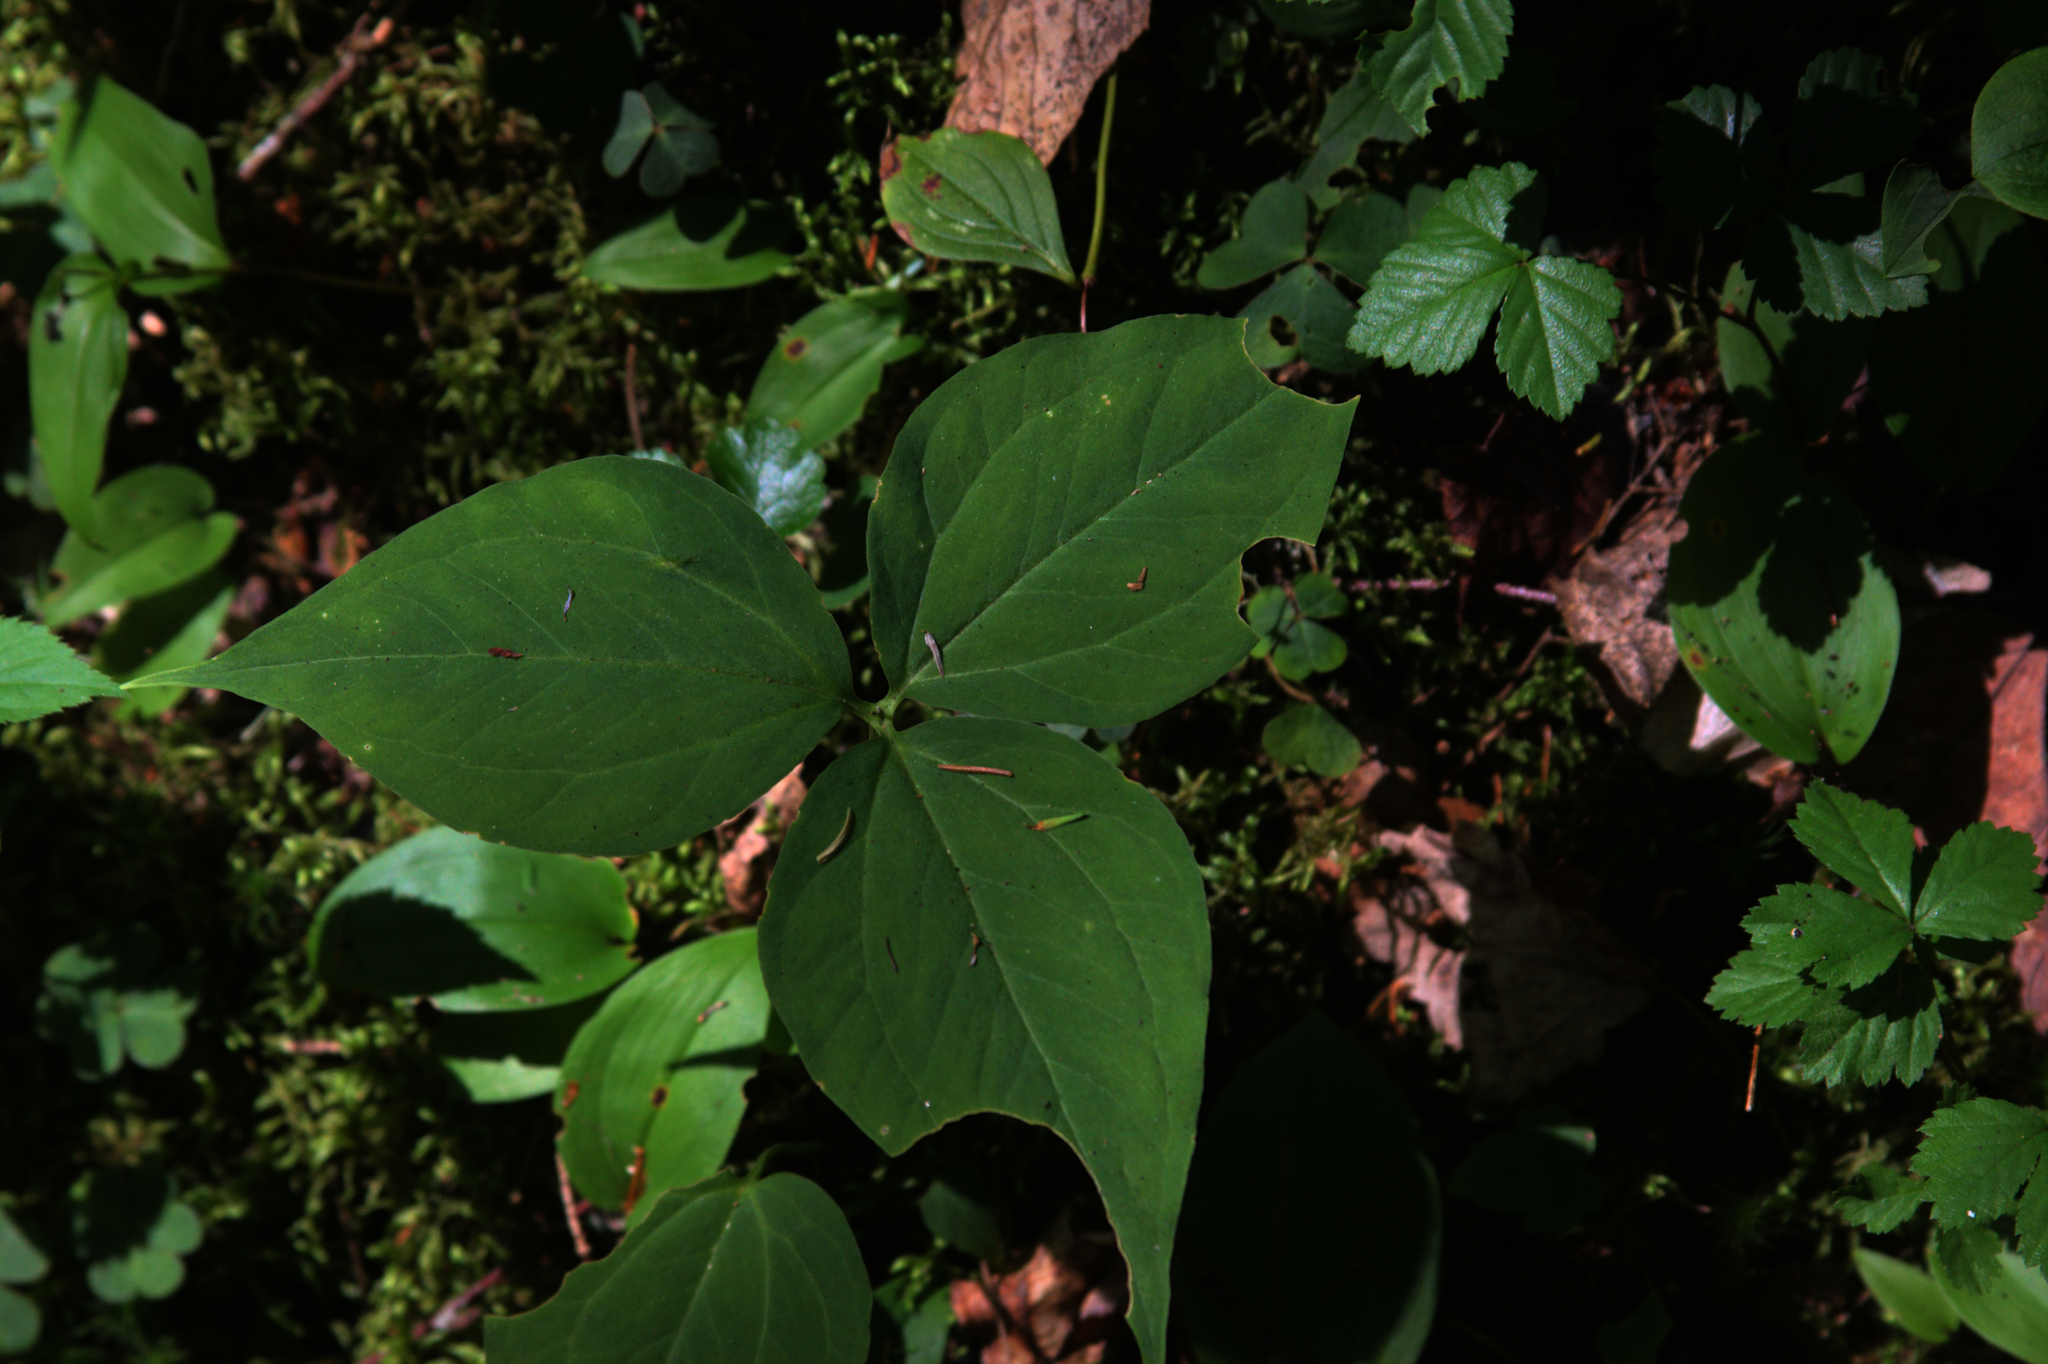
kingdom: Plantae
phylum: Tracheophyta
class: Liliopsida
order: Liliales
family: Melanthiaceae
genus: Trillium
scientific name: Trillium undulatum
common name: Paint trillium
